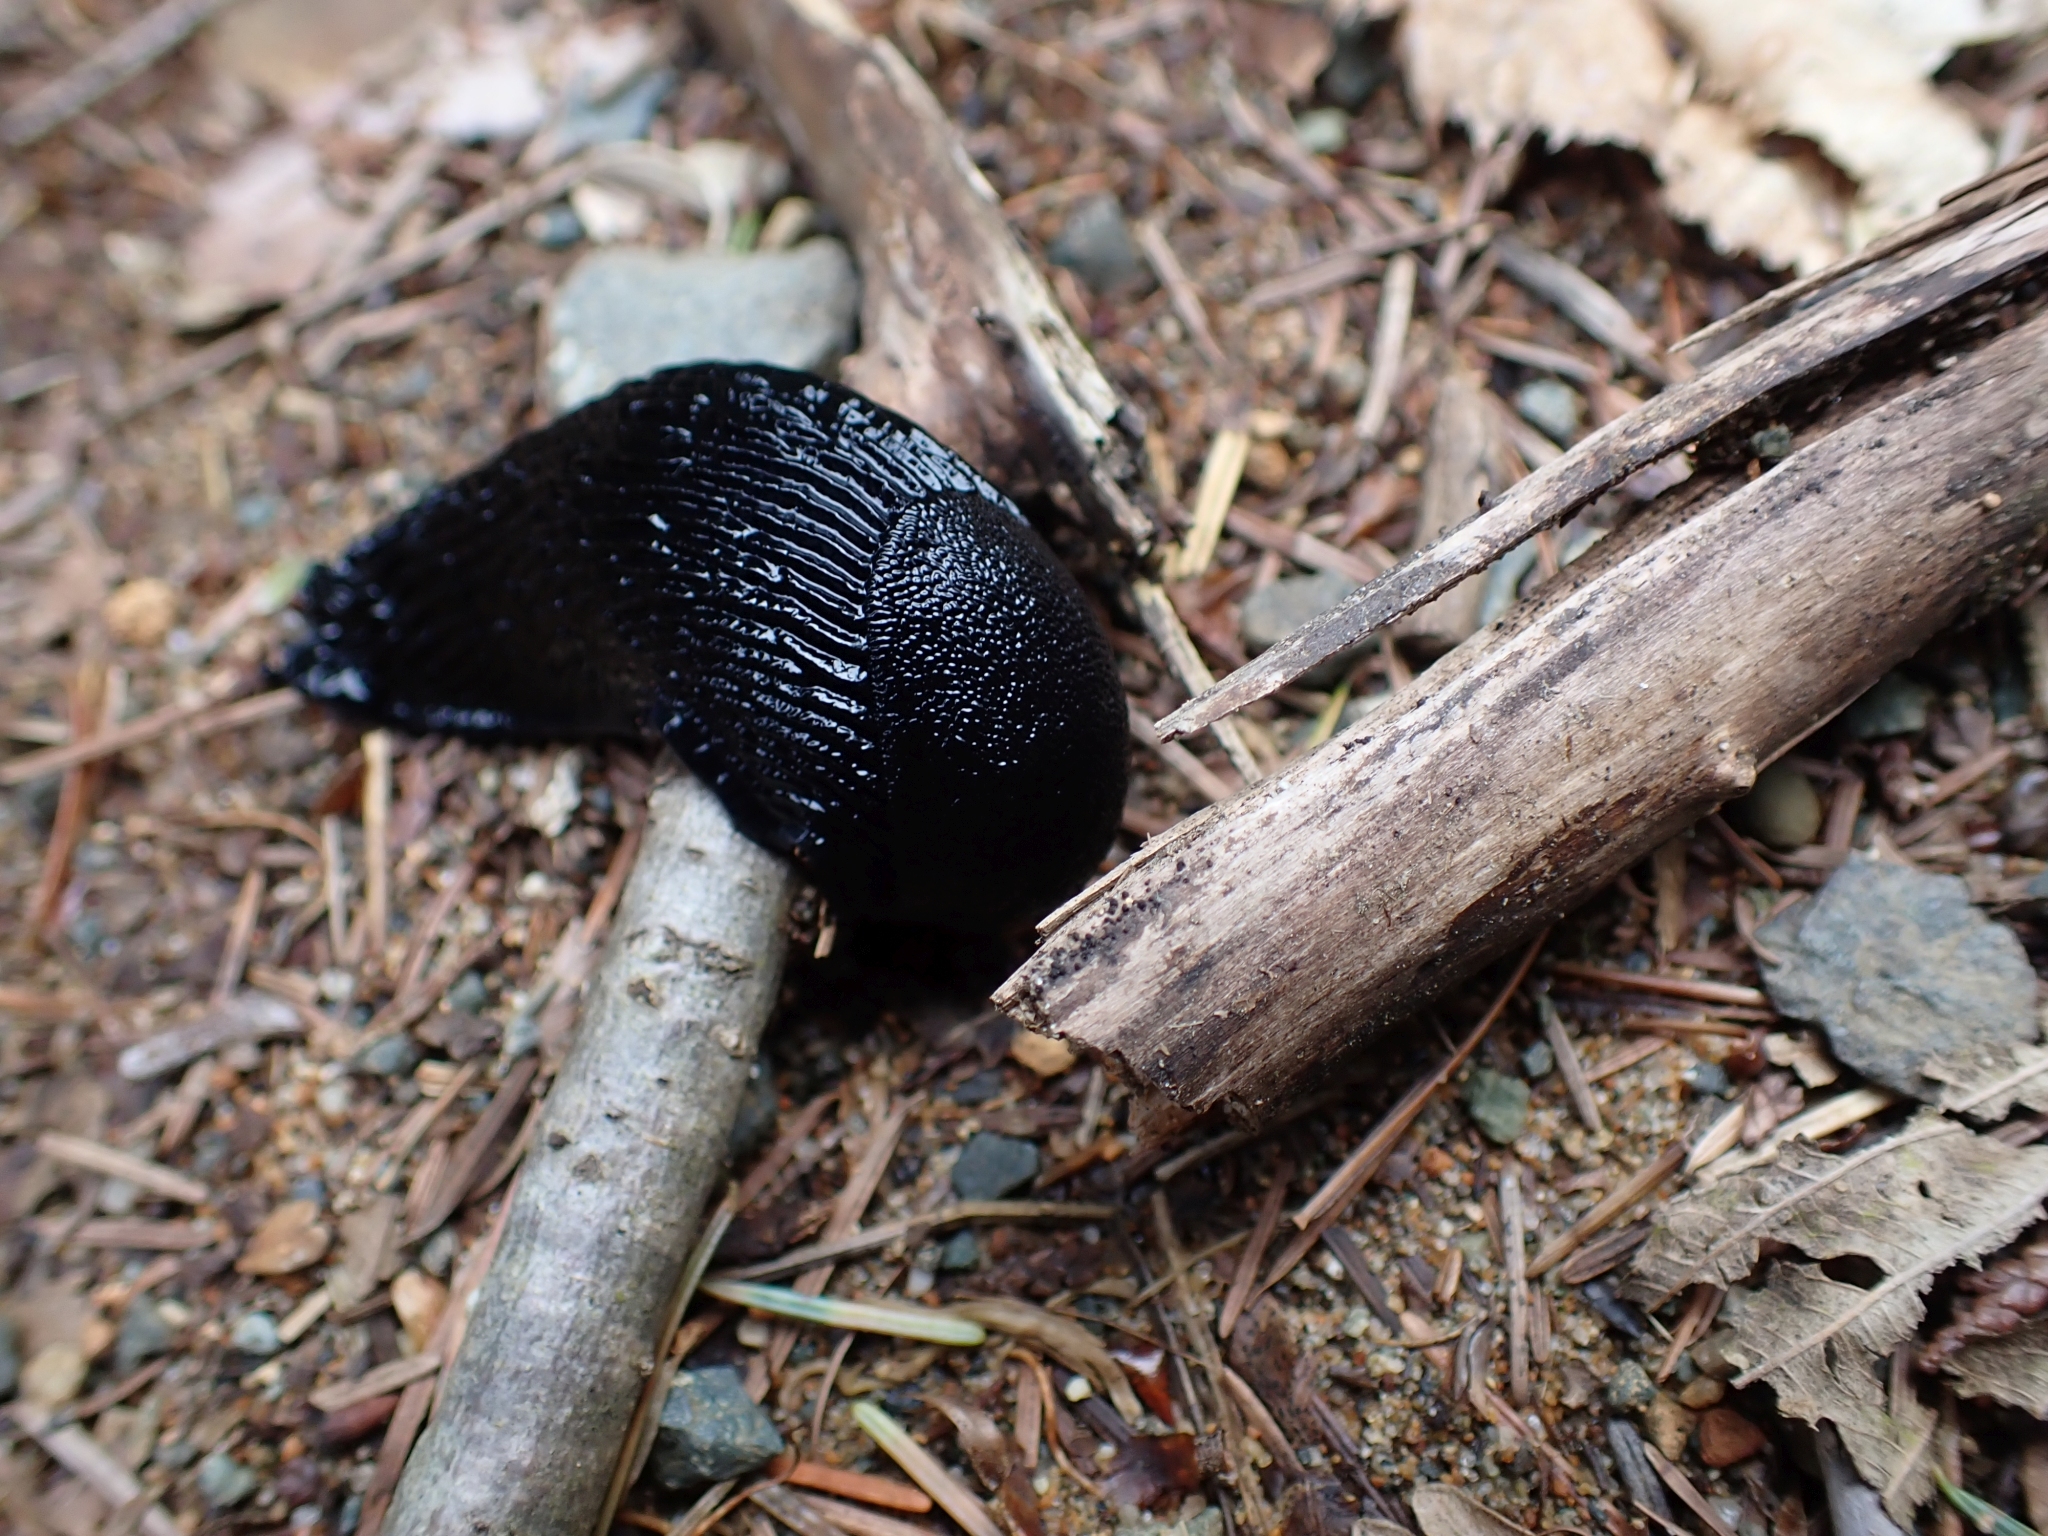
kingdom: Animalia
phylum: Mollusca
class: Gastropoda
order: Stylommatophora
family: Arionidae
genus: Arion
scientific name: Arion
